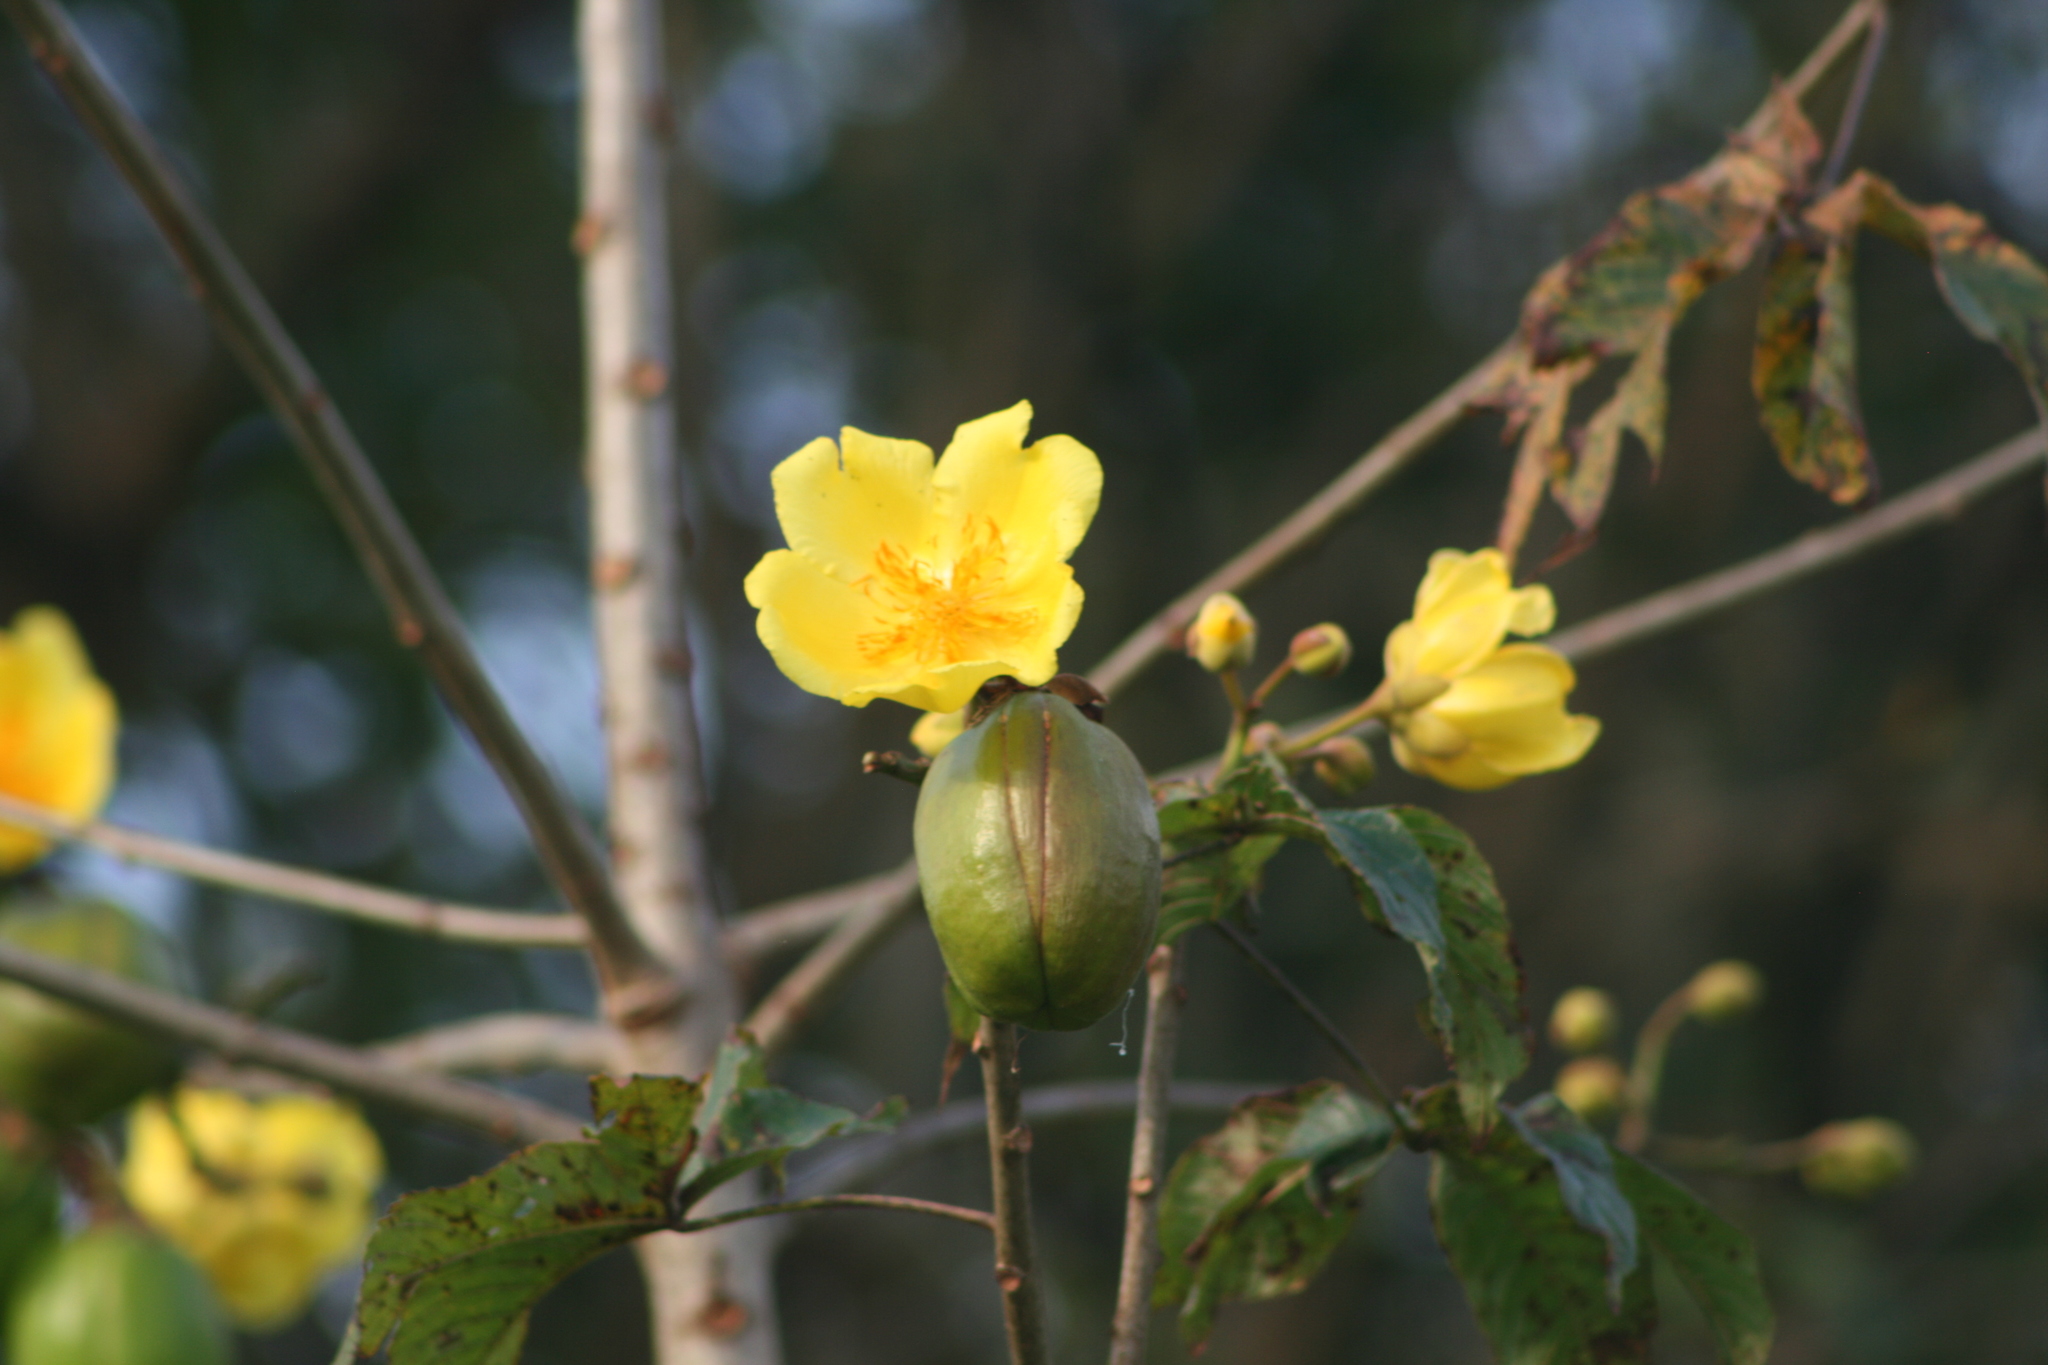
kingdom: Plantae
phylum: Tracheophyta
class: Magnoliopsida
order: Malvales
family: Cochlospermaceae
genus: Cochlospermum
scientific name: Cochlospermum vitifolium
